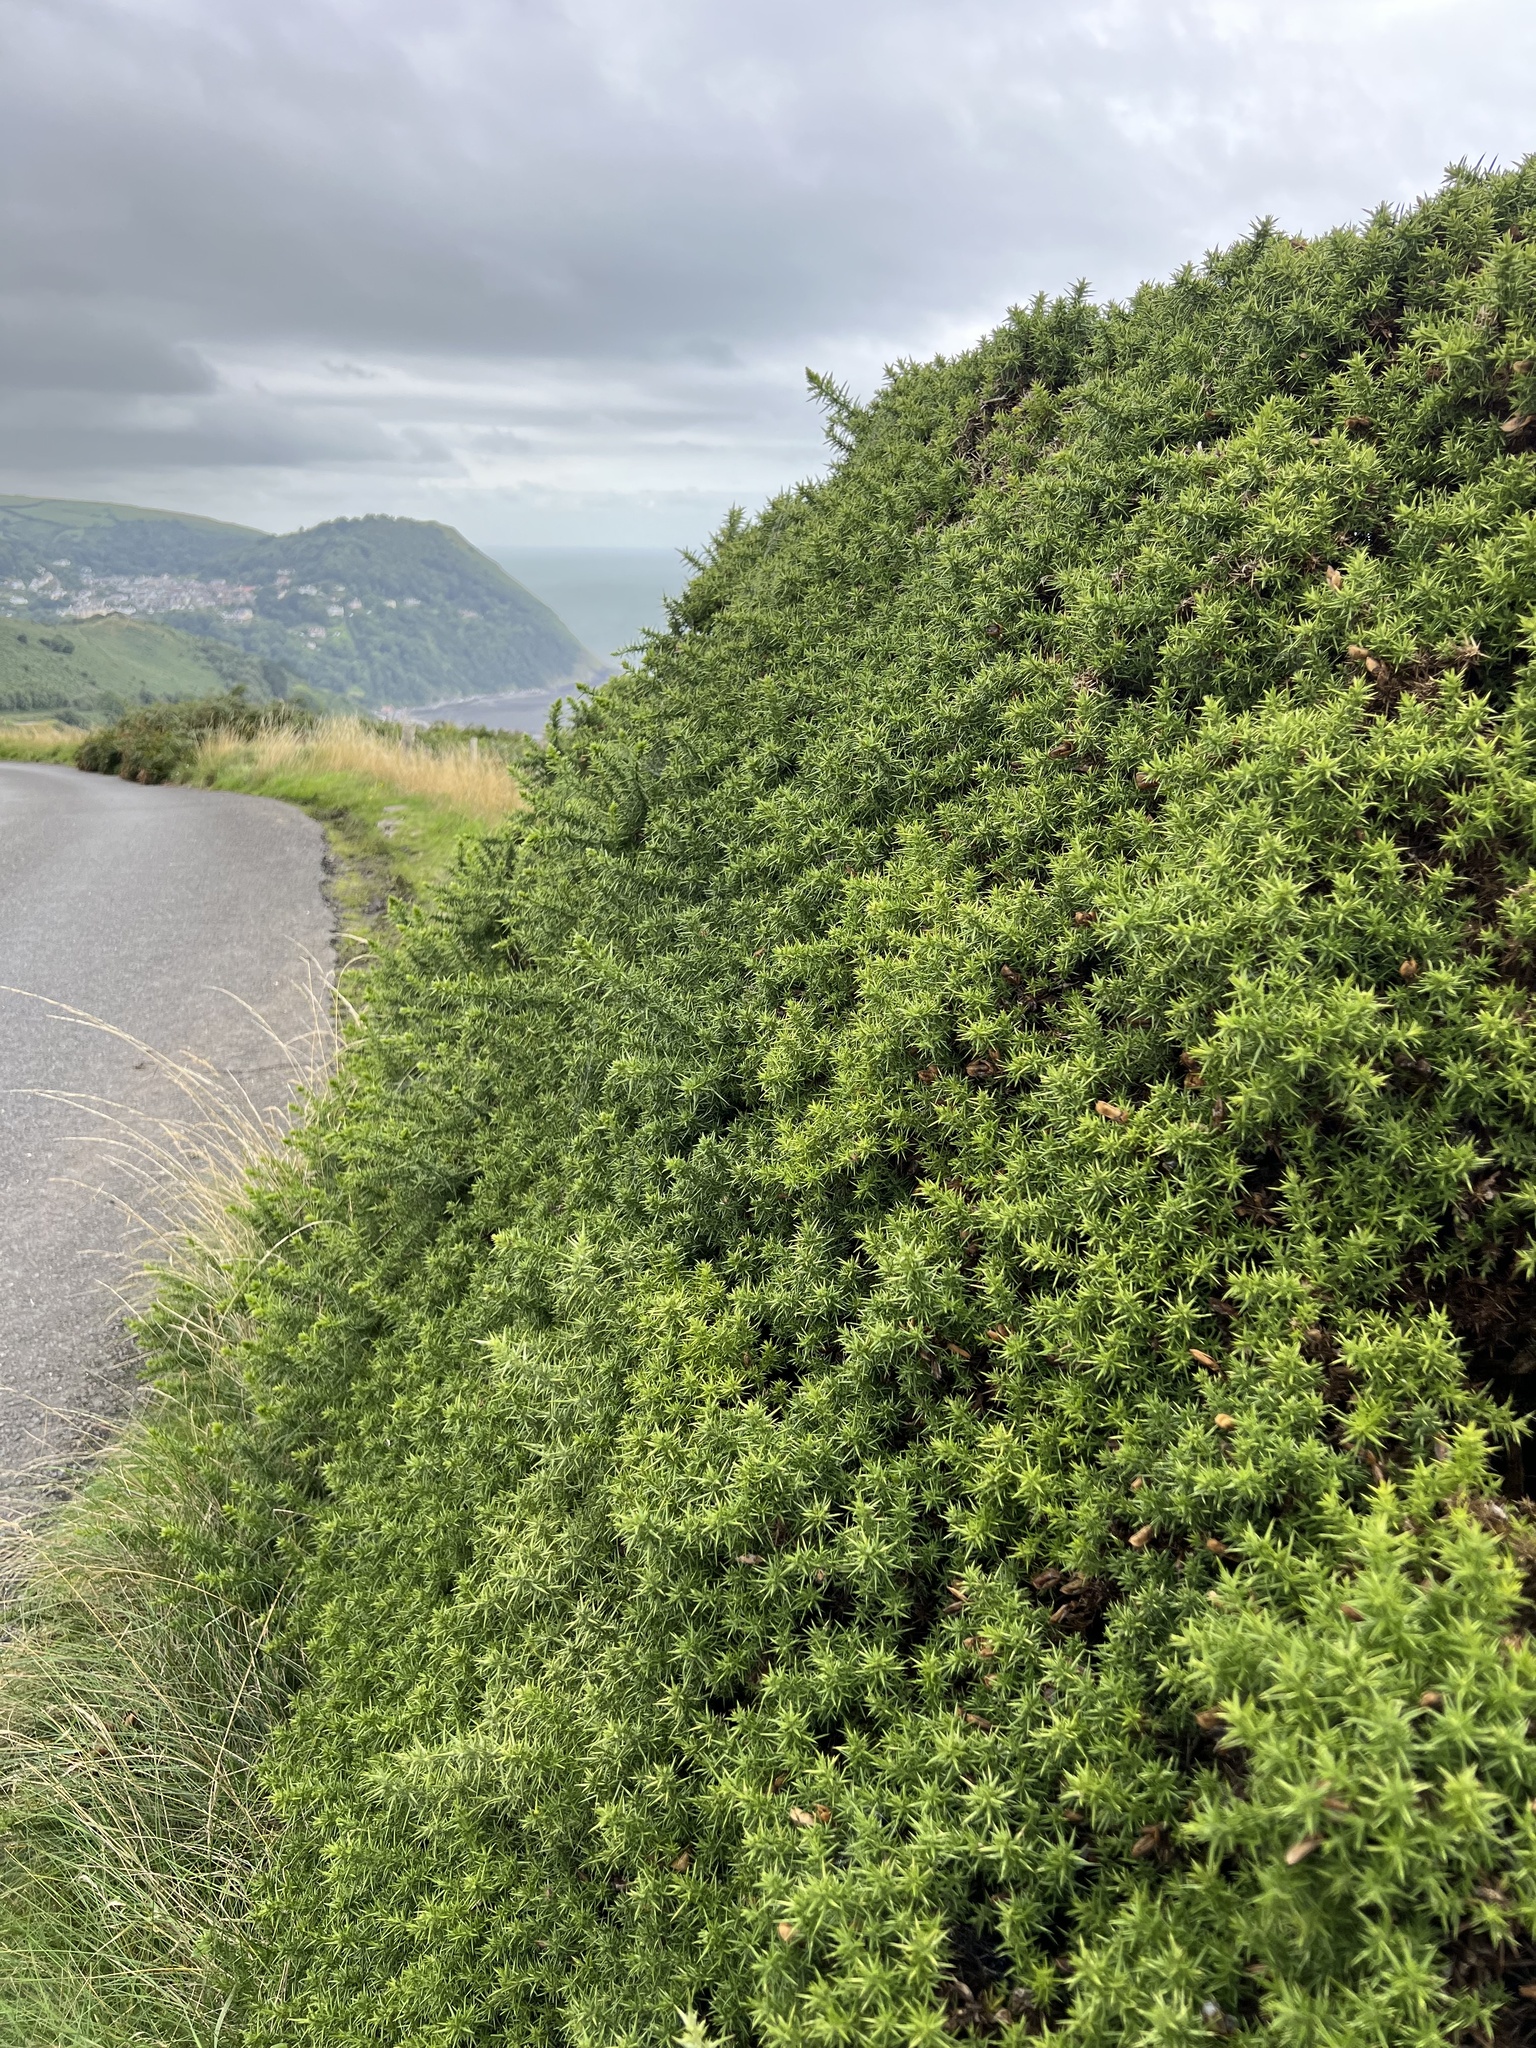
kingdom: Plantae
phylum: Tracheophyta
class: Magnoliopsida
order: Fabales
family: Fabaceae
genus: Ulex
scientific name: Ulex europaeus
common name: Common gorse
